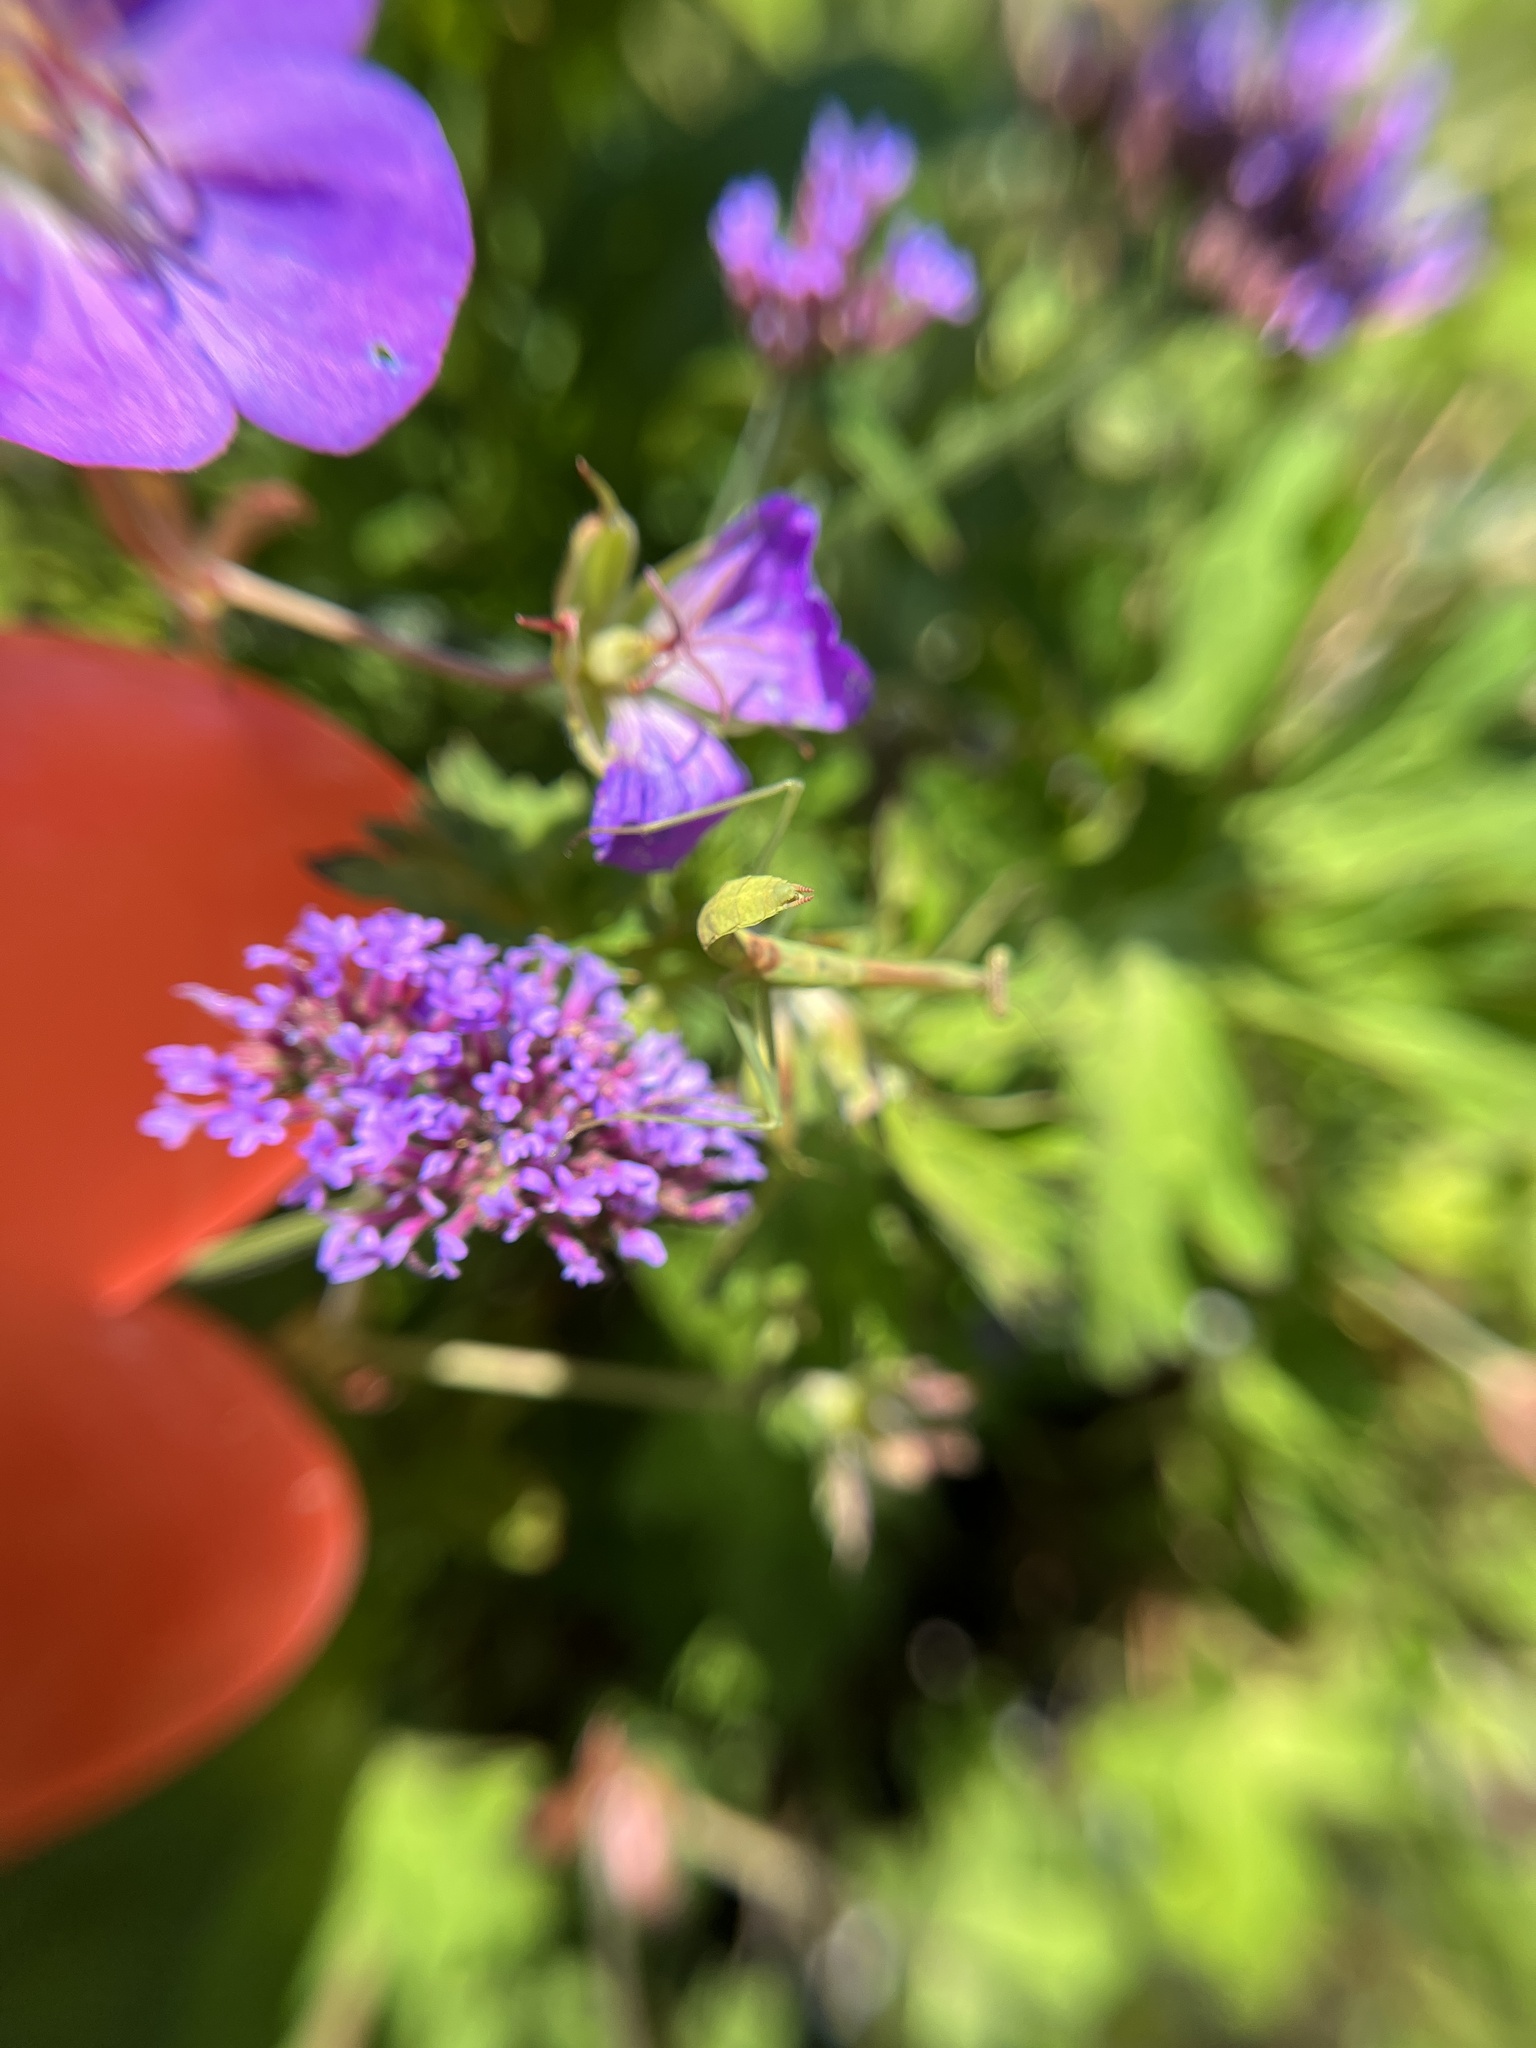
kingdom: Animalia
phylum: Arthropoda
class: Insecta
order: Mantodea
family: Mantidae
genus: Stagmomantis
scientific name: Stagmomantis carolina
